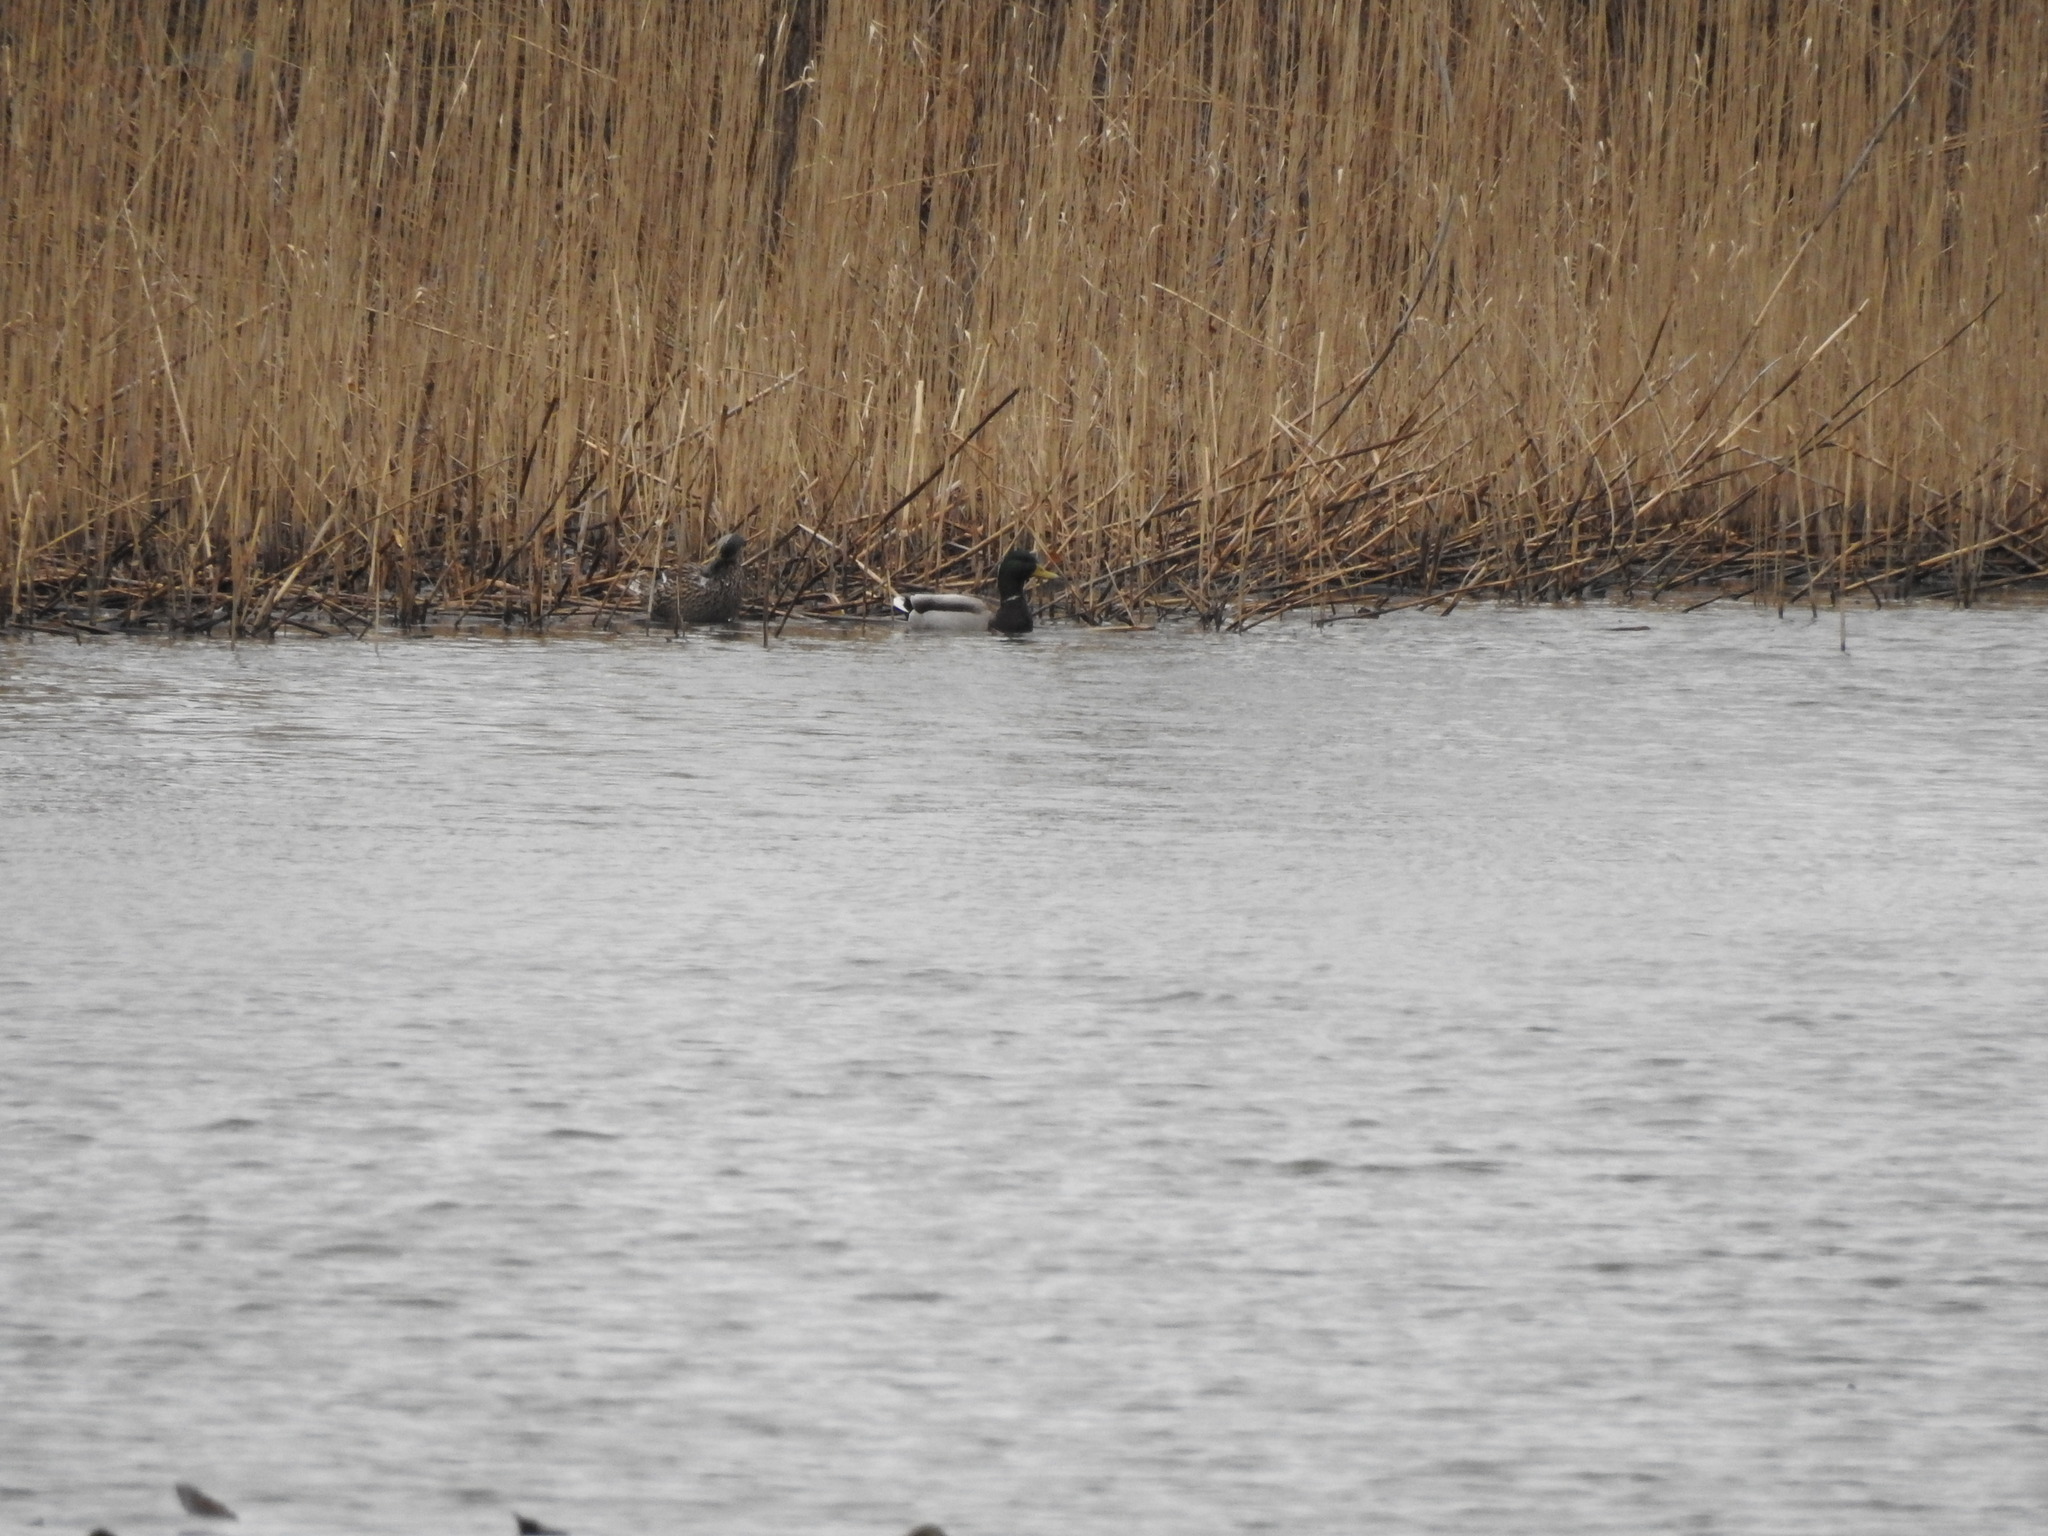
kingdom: Animalia
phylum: Chordata
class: Aves
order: Anseriformes
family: Anatidae
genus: Anas
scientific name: Anas platyrhynchos
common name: Mallard
